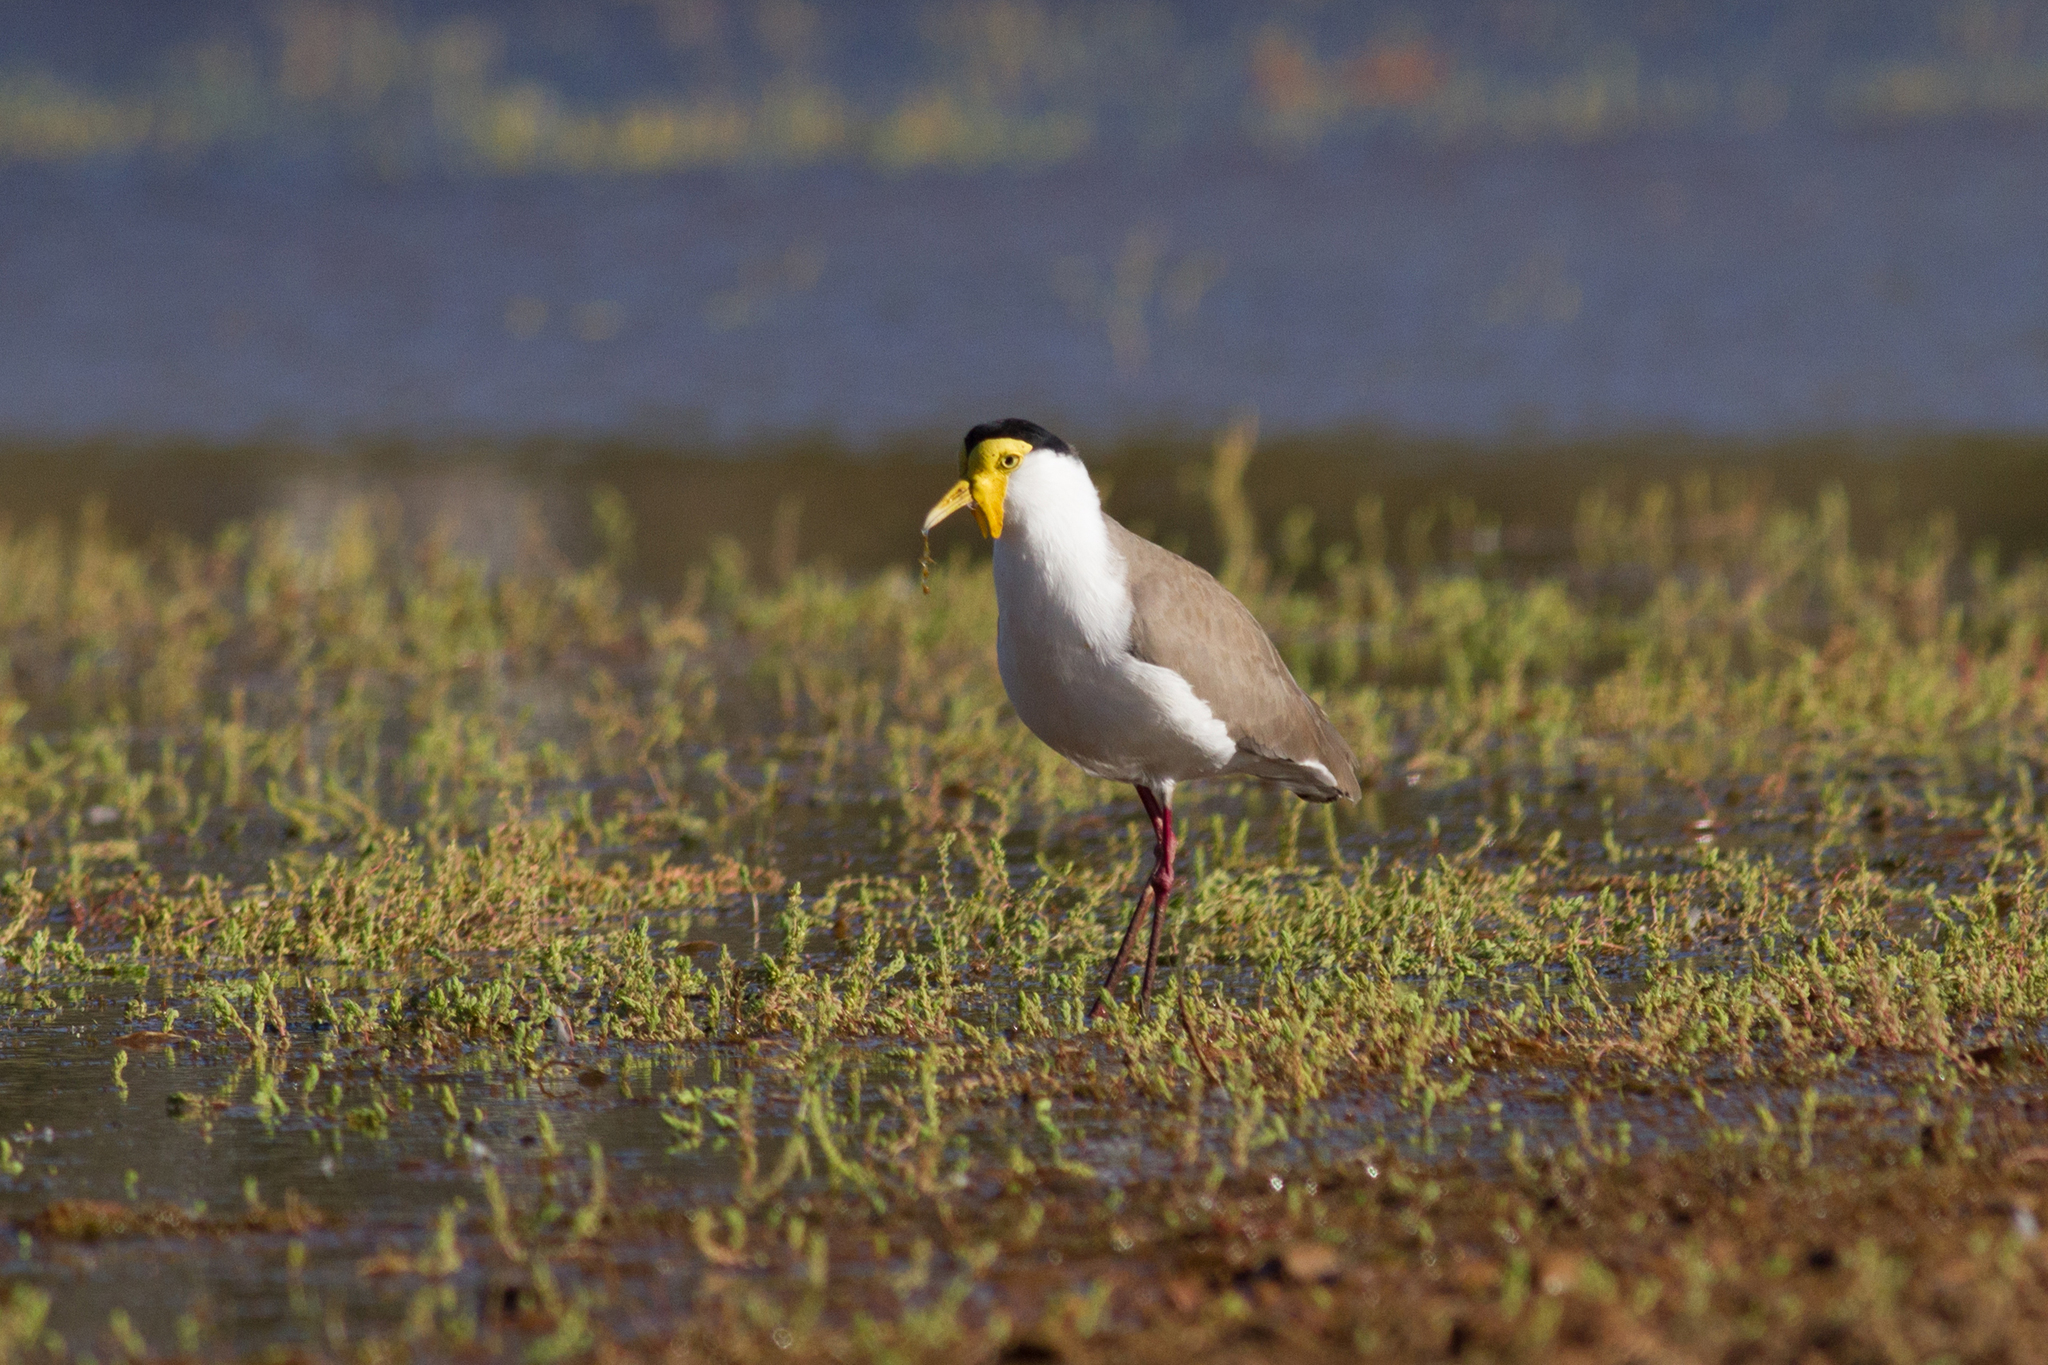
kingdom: Animalia
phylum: Chordata
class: Aves
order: Charadriiformes
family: Charadriidae
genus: Vanellus
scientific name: Vanellus miles
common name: Masked lapwing
